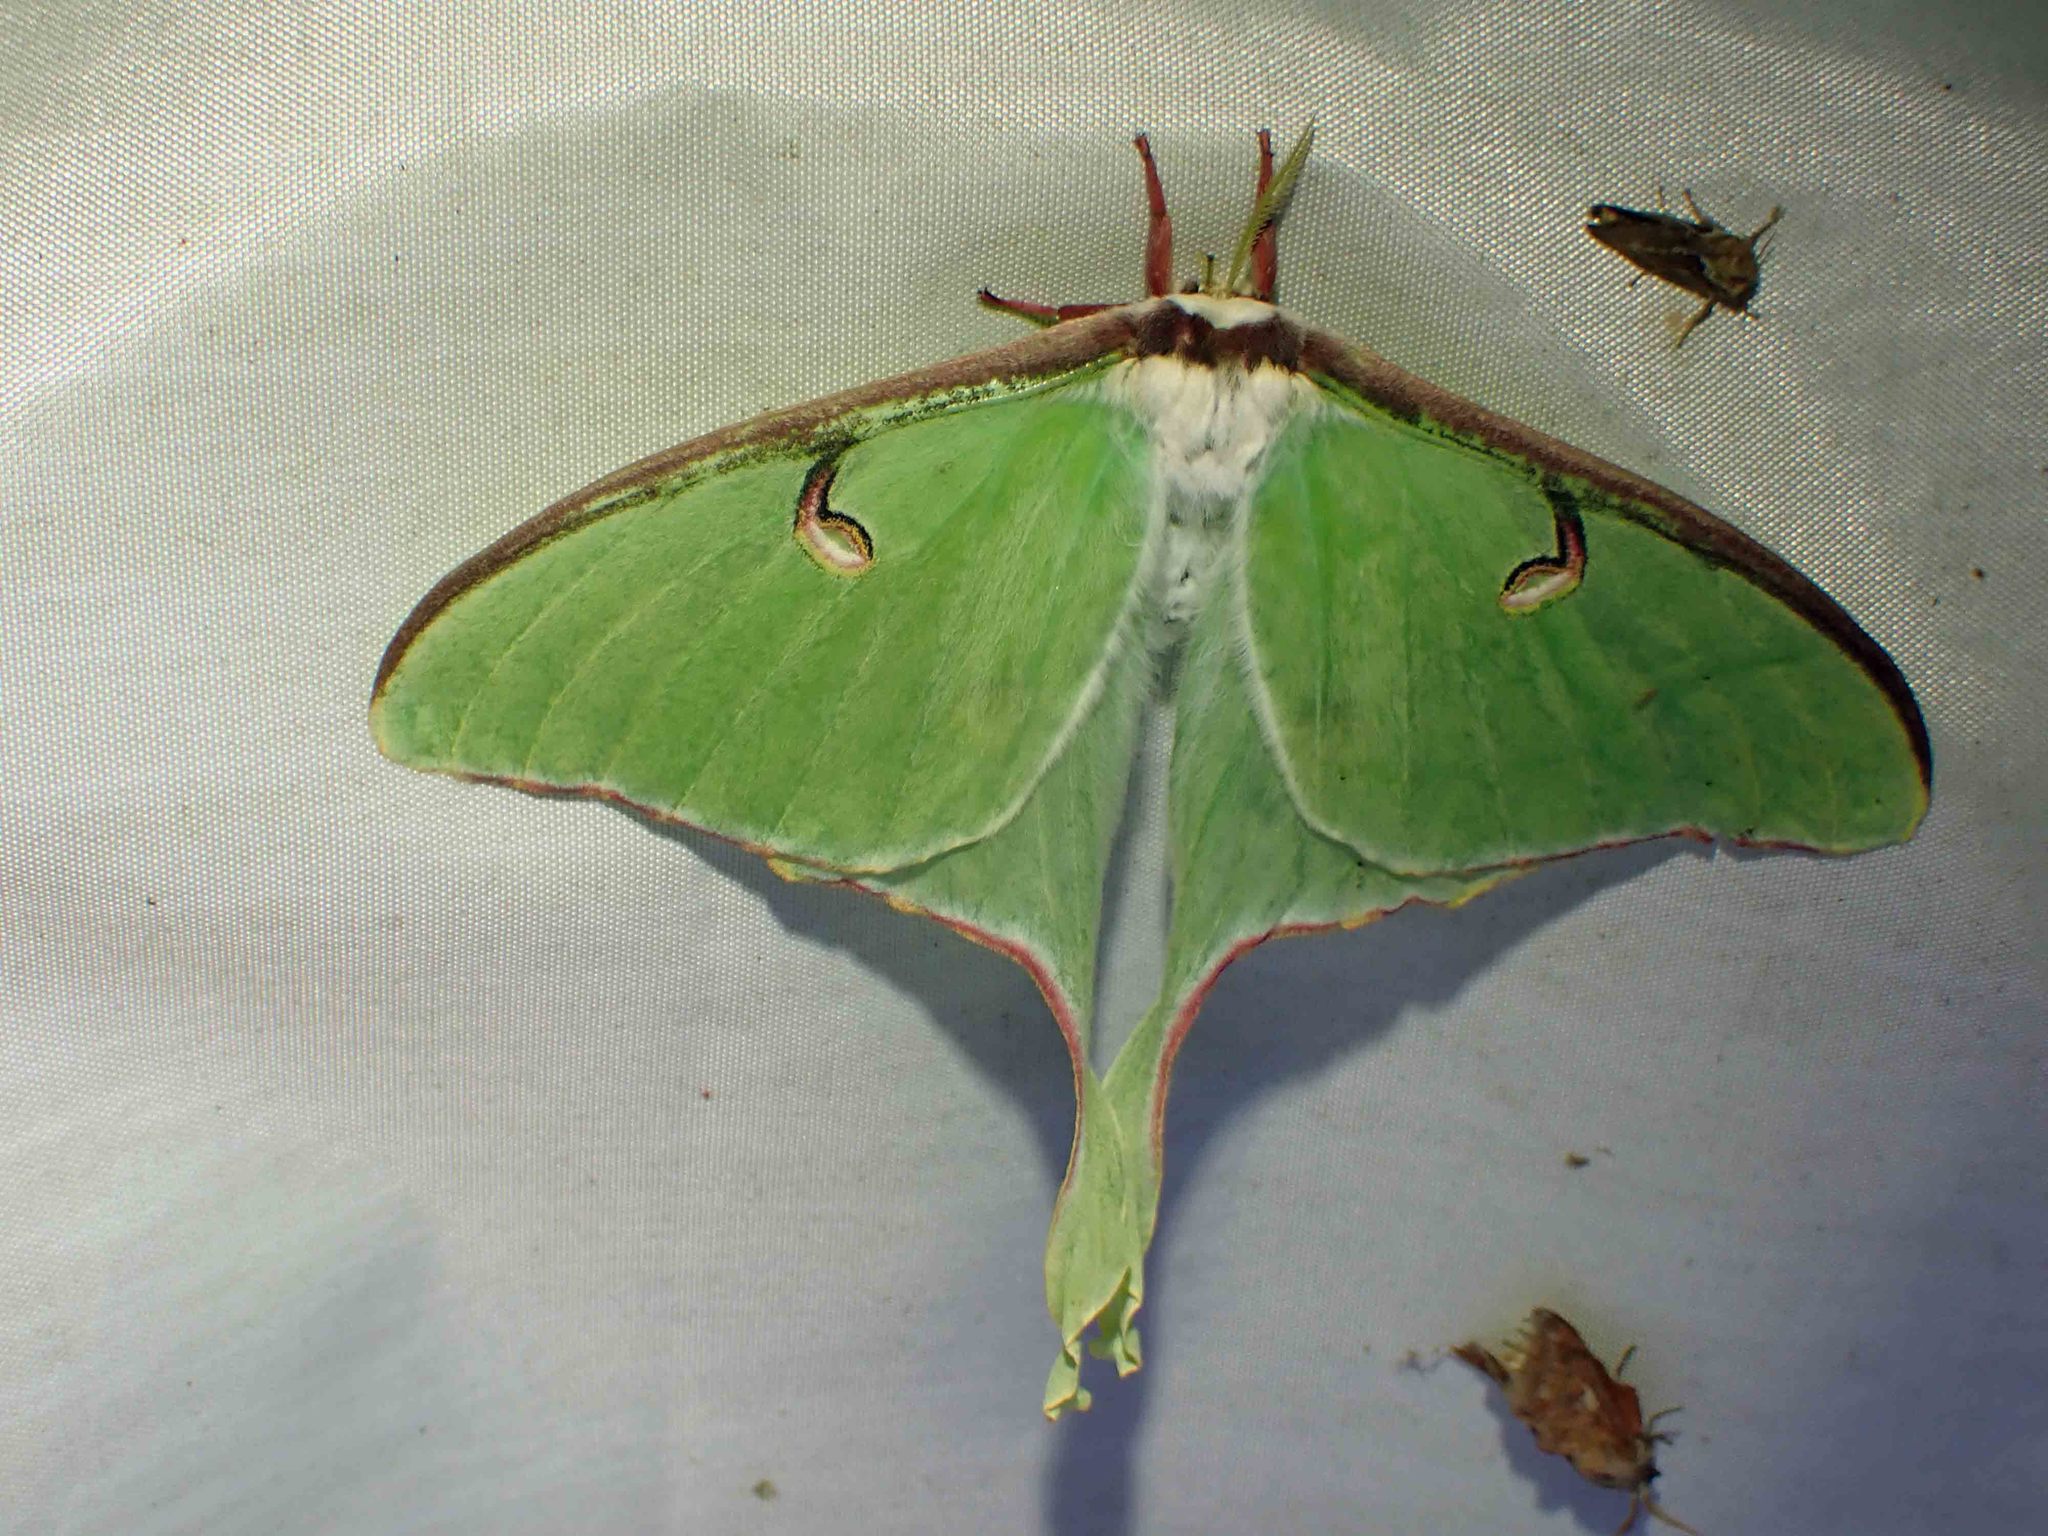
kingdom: Animalia
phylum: Arthropoda
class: Insecta
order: Lepidoptera
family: Saturniidae
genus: Actias
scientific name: Actias luna
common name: Luna moth
